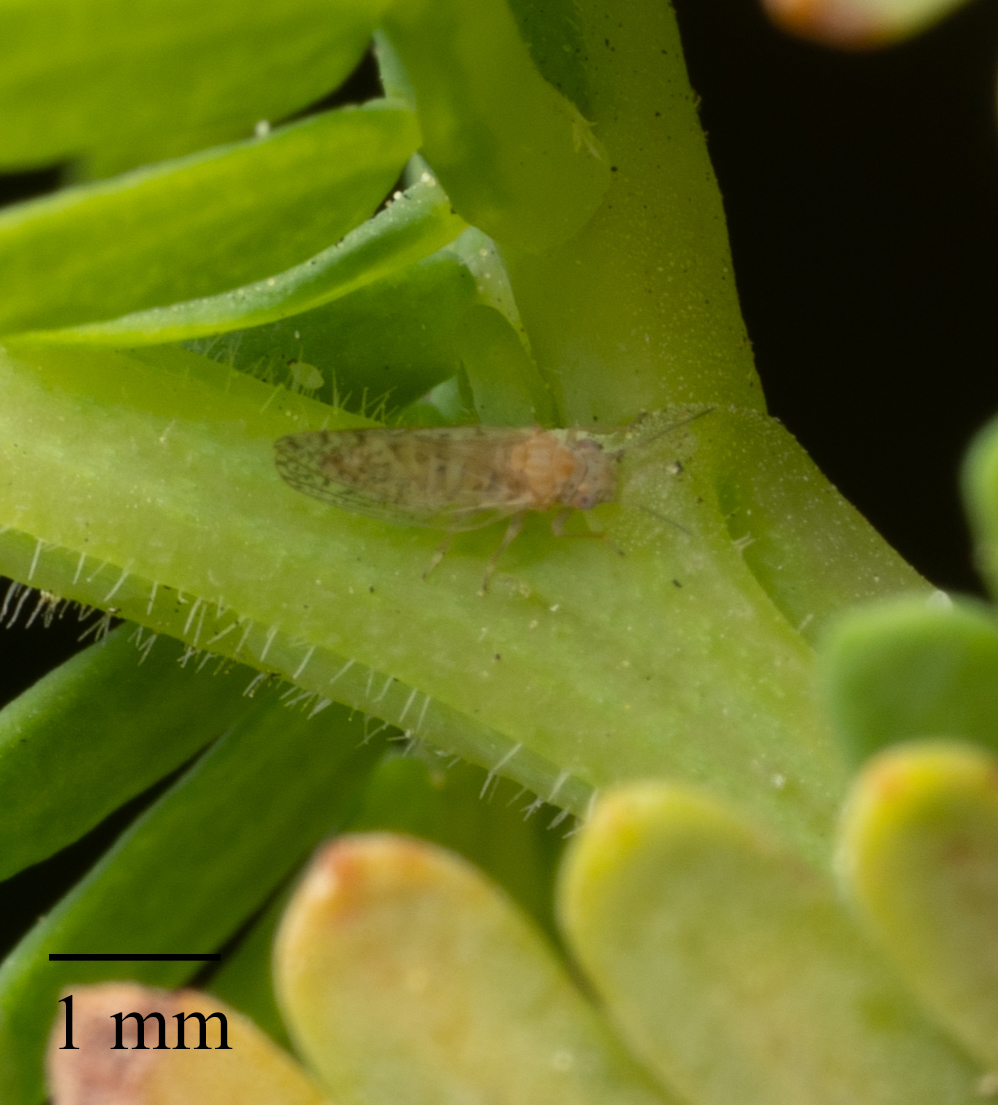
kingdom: Animalia
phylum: Arthropoda
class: Insecta
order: Hemiptera
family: Psyllidae
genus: Acizzia
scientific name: Acizzia uncatoides
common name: Psyllid
